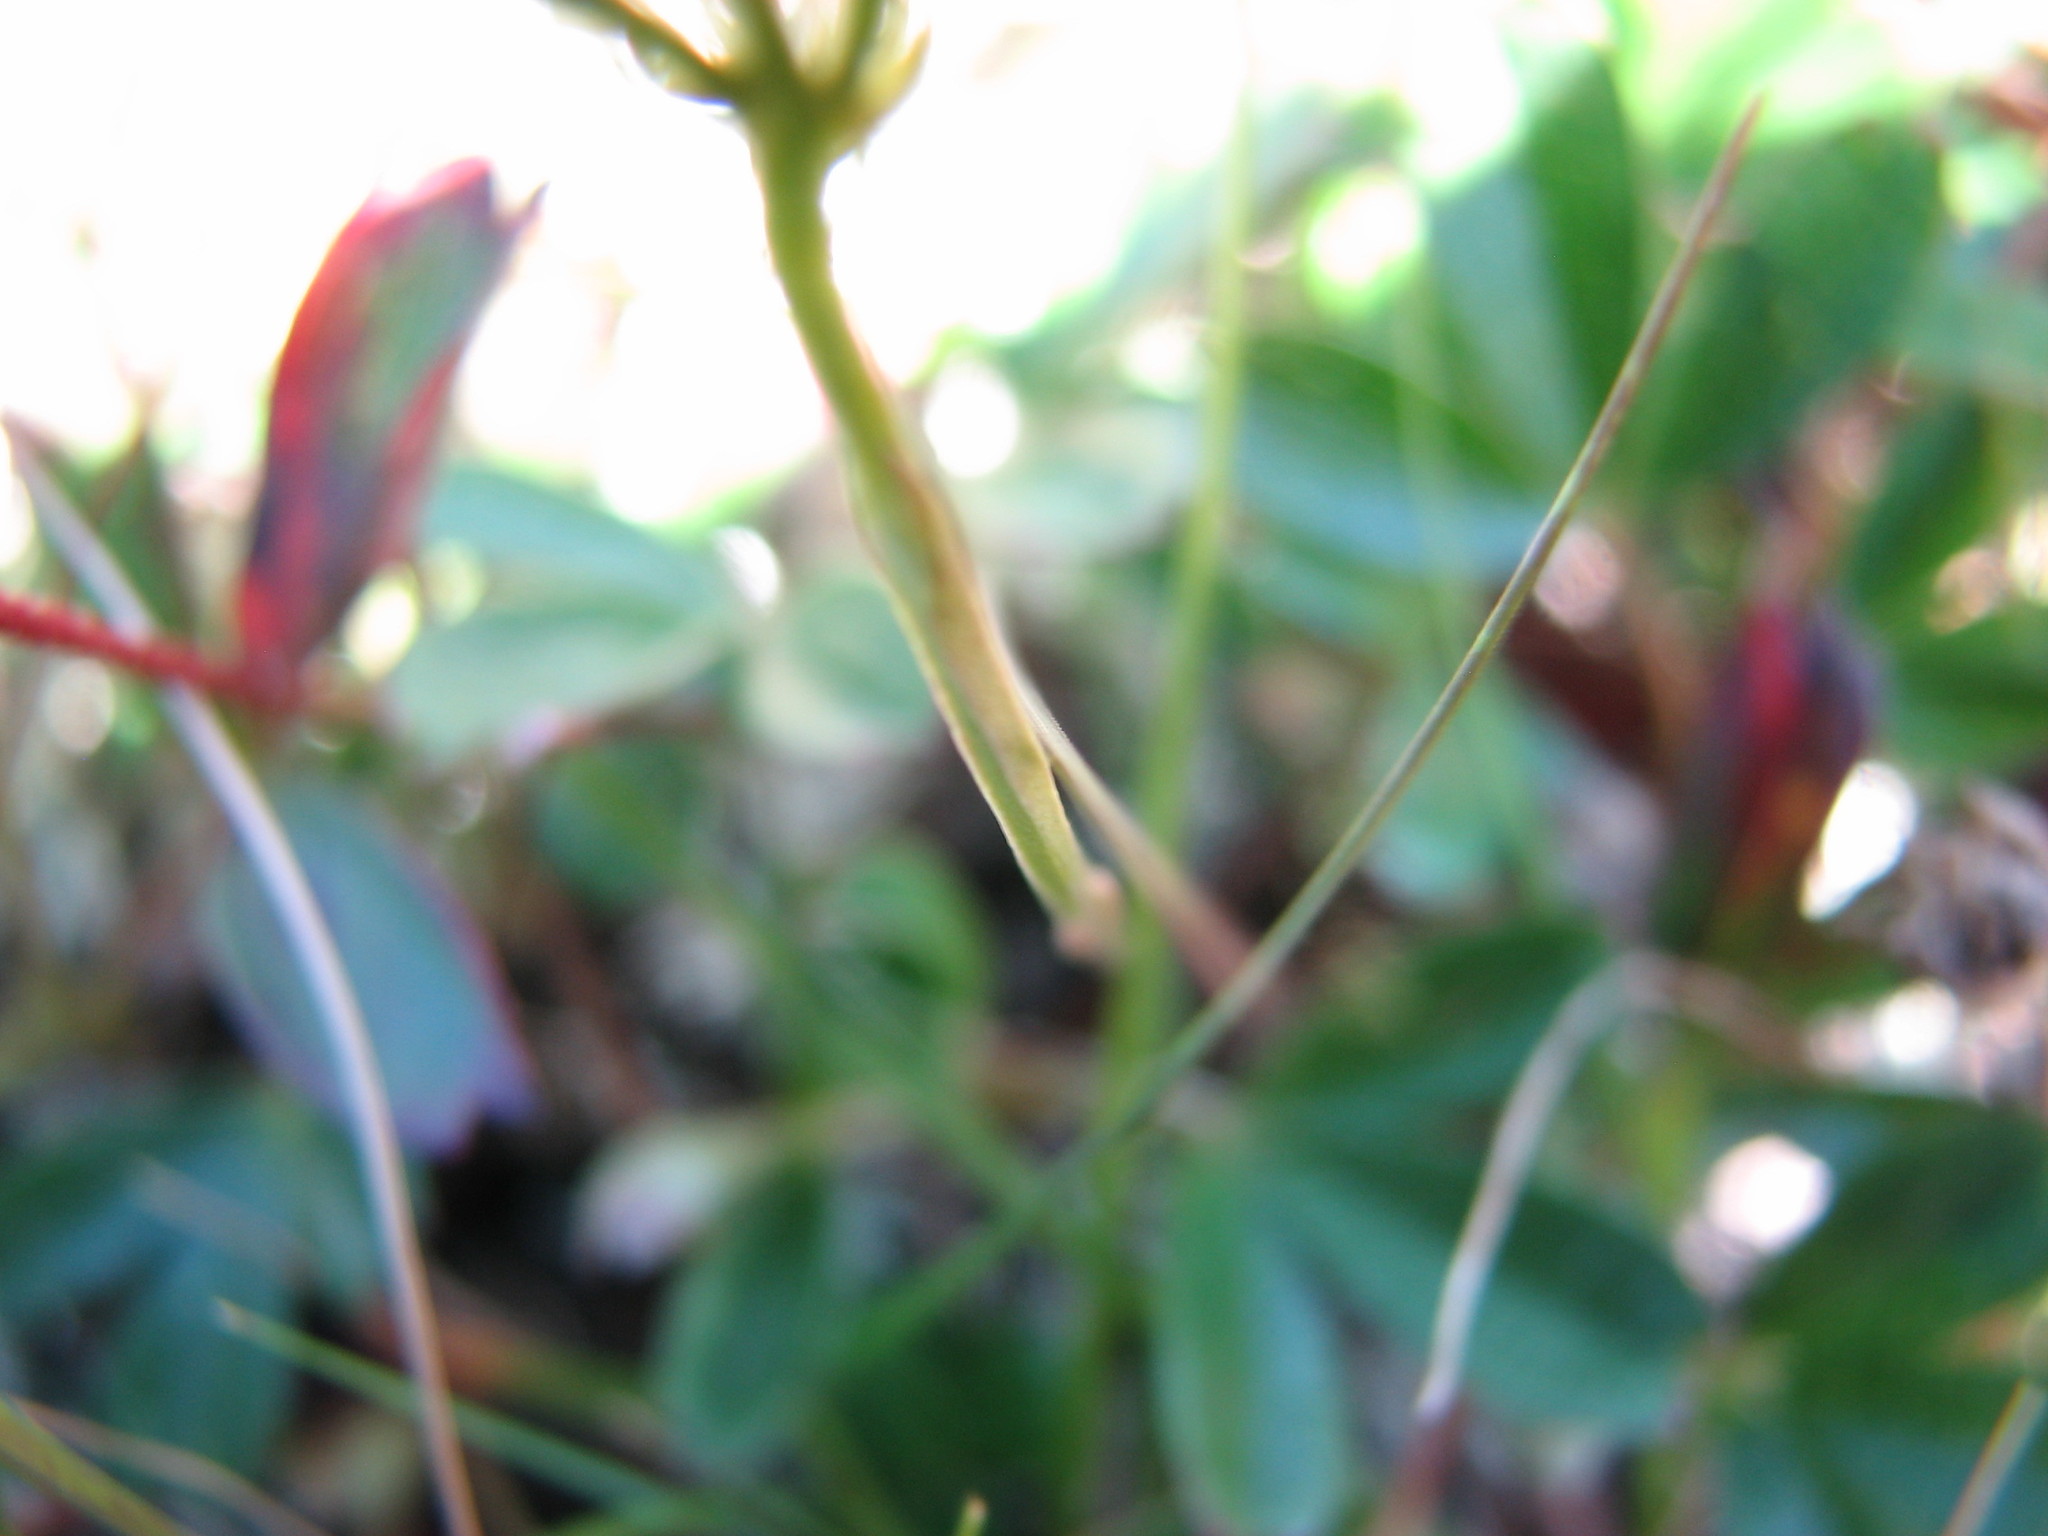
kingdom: Plantae
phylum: Tracheophyta
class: Magnoliopsida
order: Gentianales
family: Gentianaceae
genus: Bartonia
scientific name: Bartonia virginica
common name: Yellow bartonia
